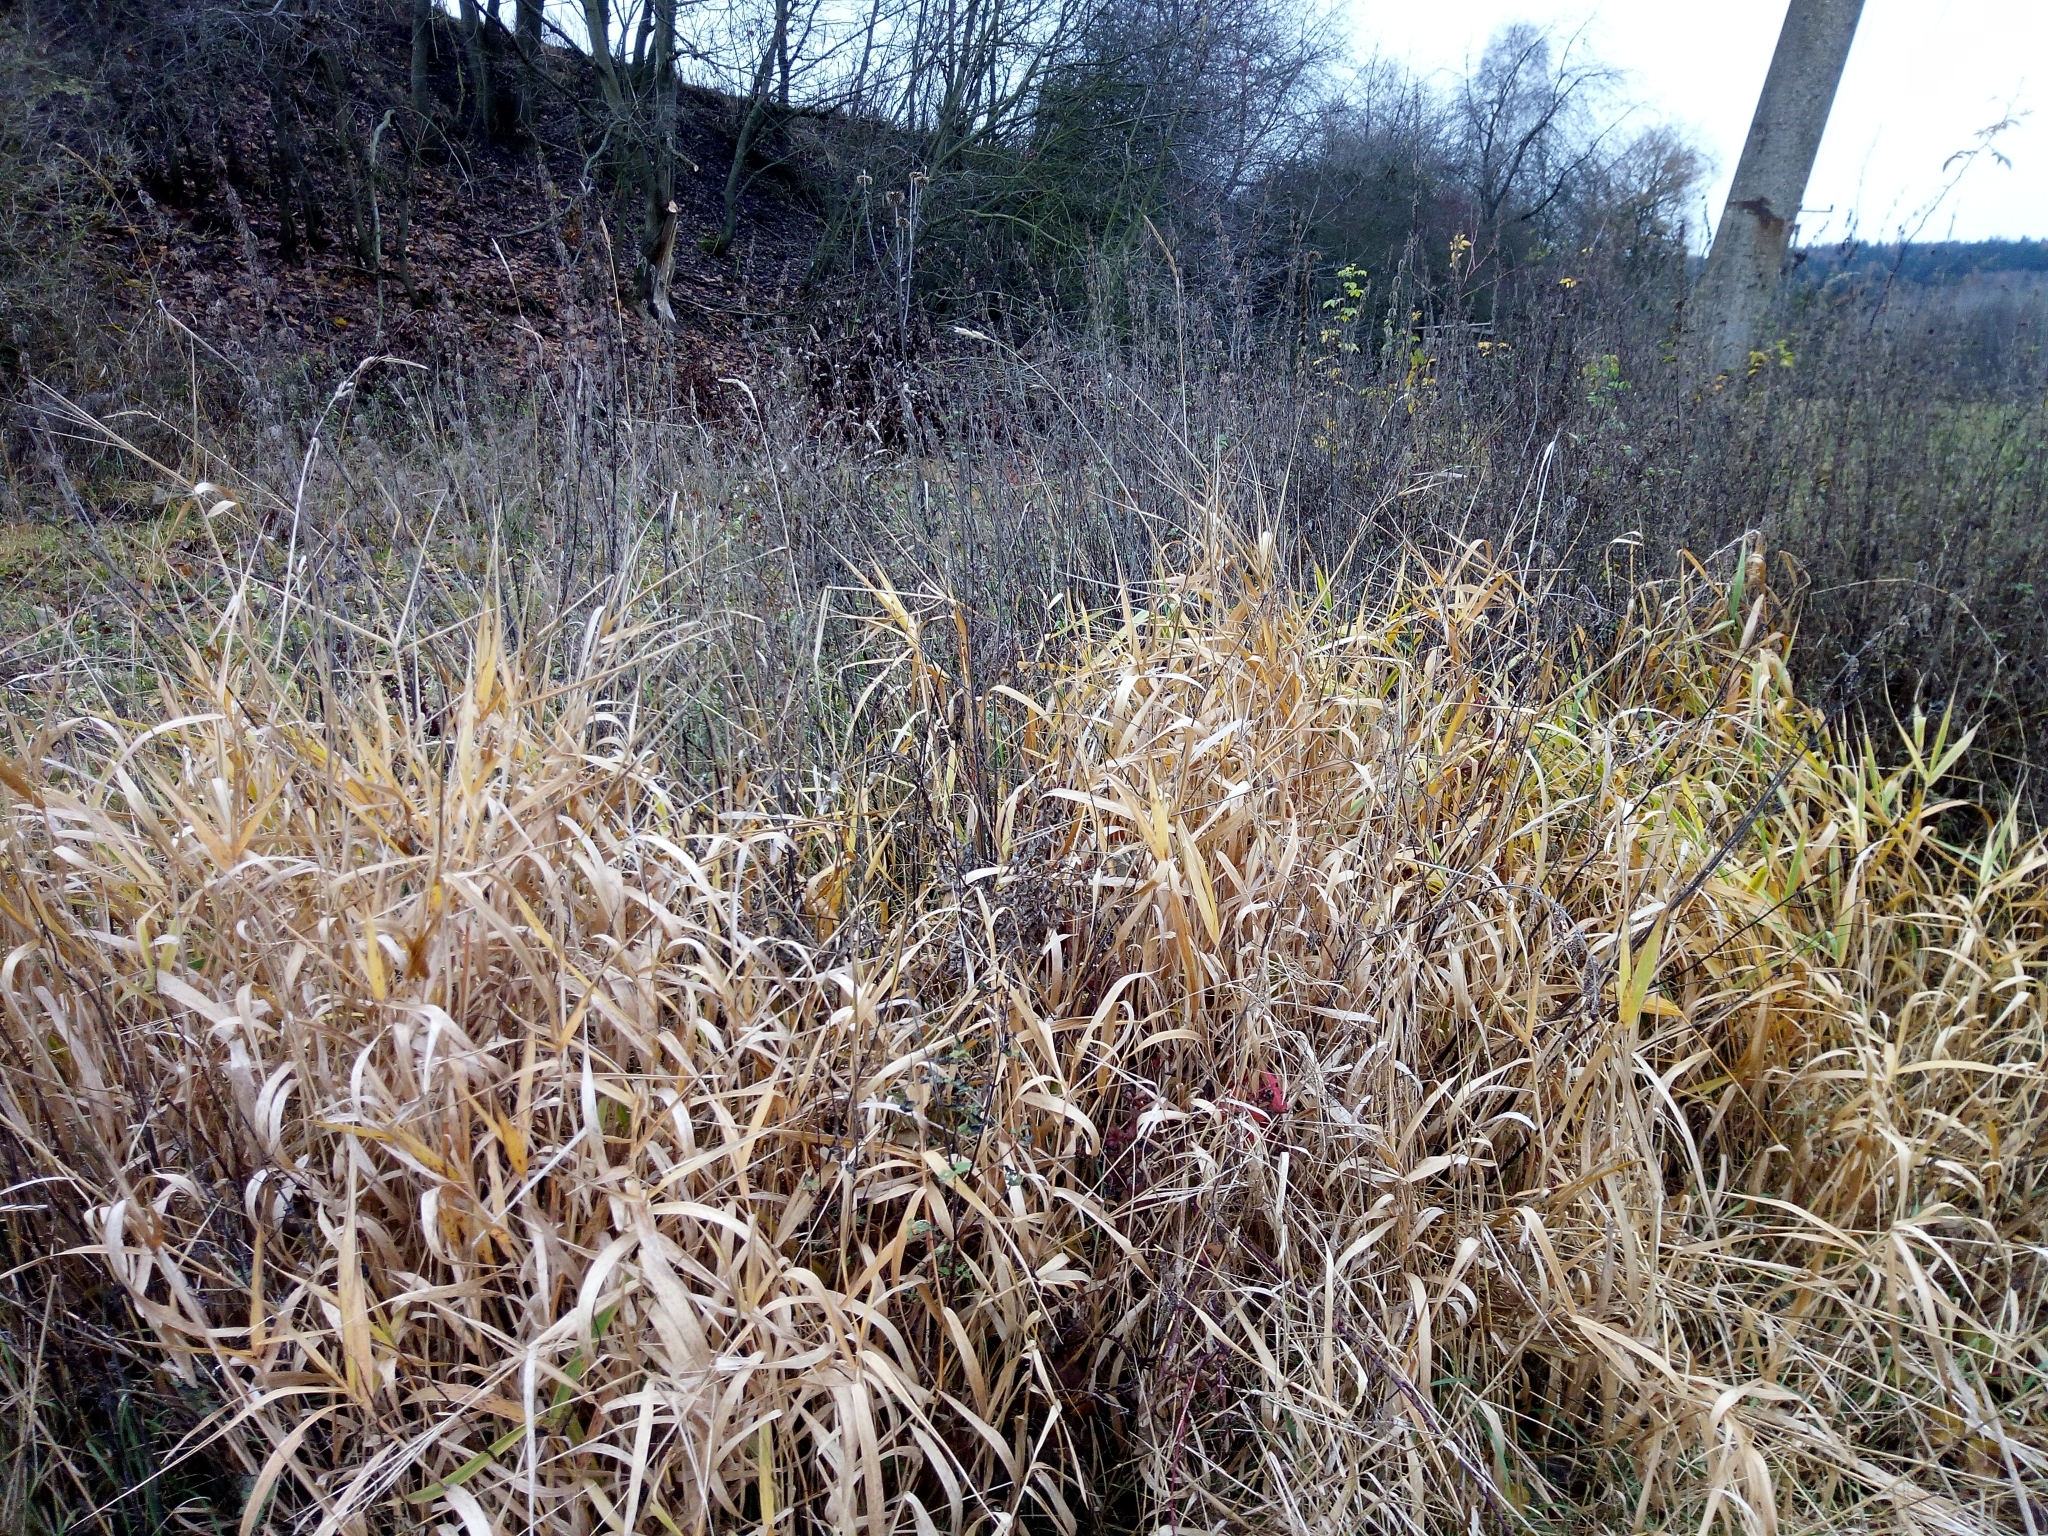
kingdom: Plantae
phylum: Tracheophyta
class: Liliopsida
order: Poales
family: Poaceae
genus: Phalaris
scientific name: Phalaris arundinacea
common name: Reed canary-grass
